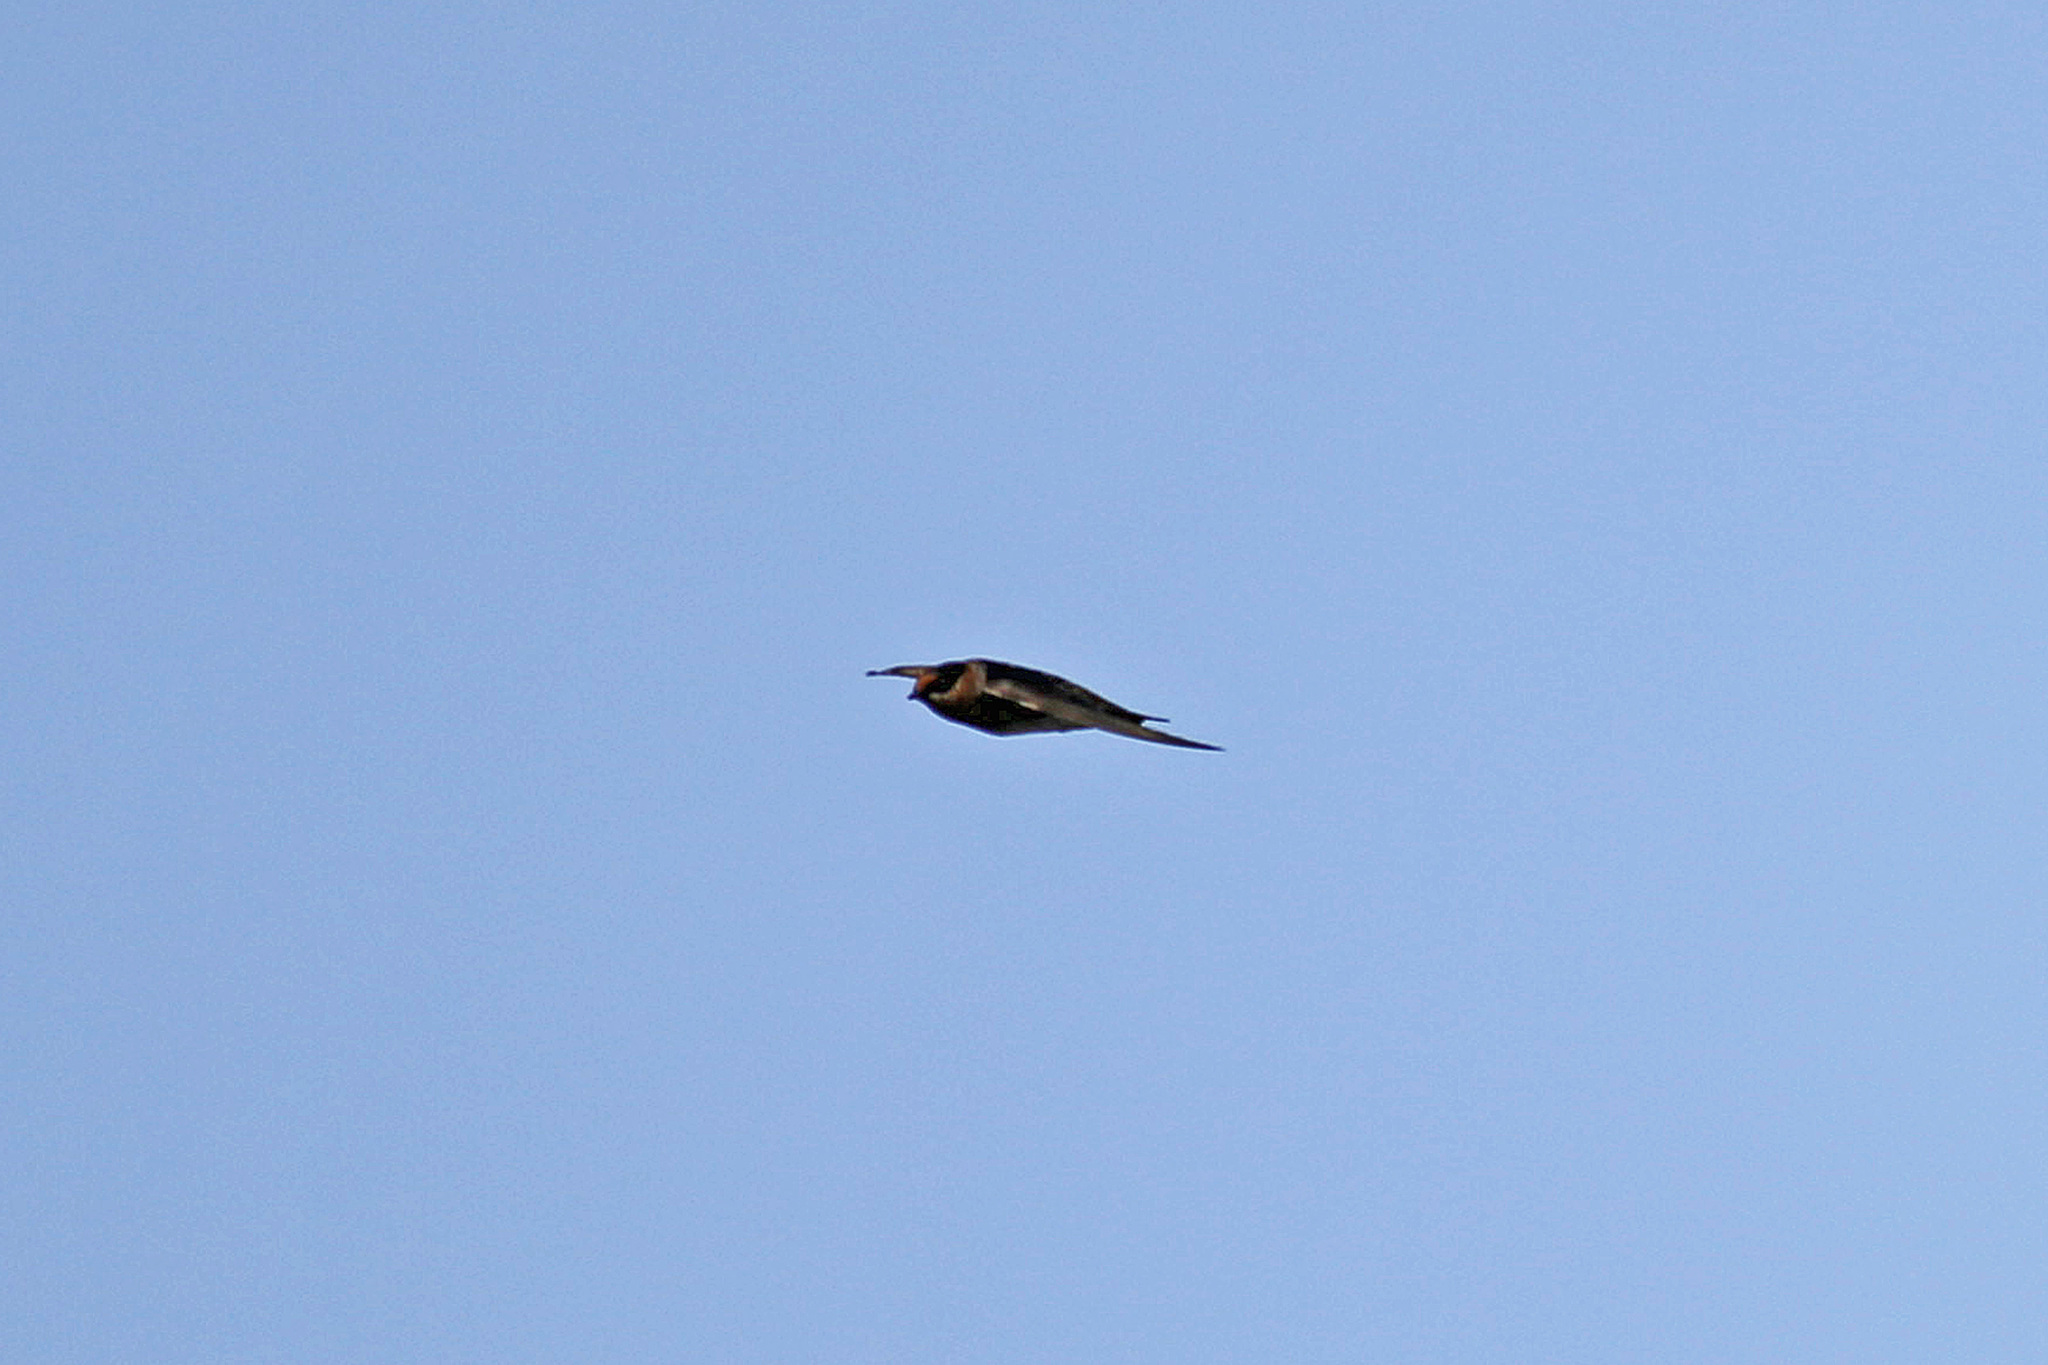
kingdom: Animalia
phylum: Chordata
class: Aves
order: Passeriformes
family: Hirundinidae
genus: Petrochelidon
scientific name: Petrochelidon fulva
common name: Cave swallow
